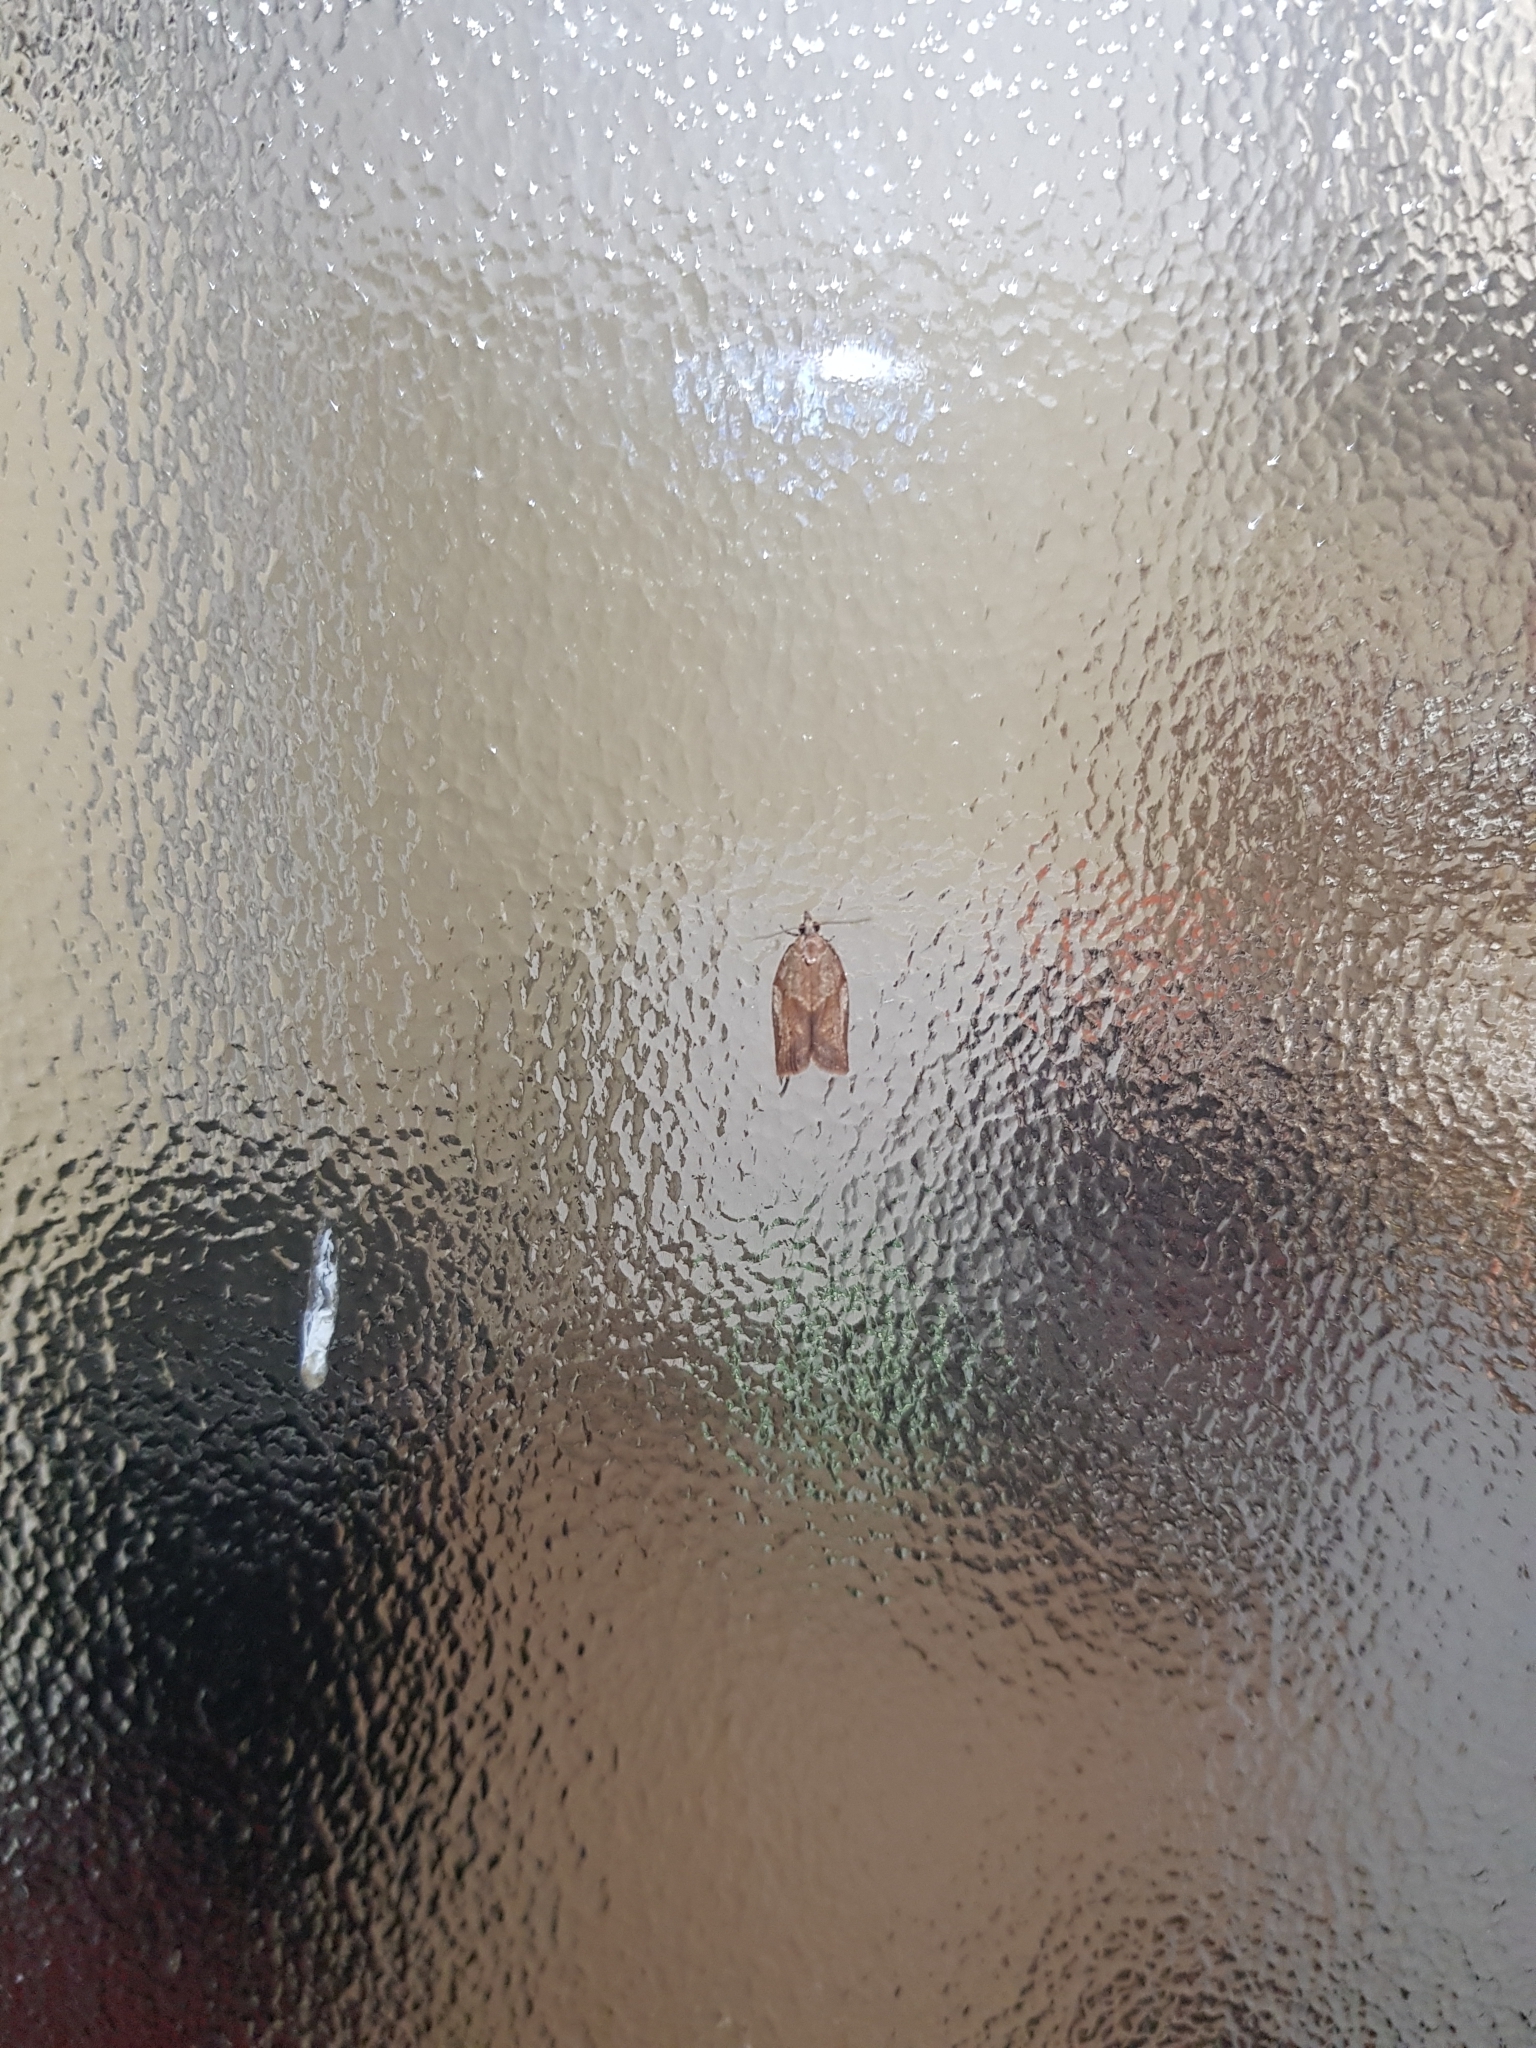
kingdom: Animalia
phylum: Arthropoda
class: Insecta
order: Lepidoptera
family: Tortricidae
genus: Epiphyas
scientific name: Epiphyas postvittana
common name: Light brown apple moth
